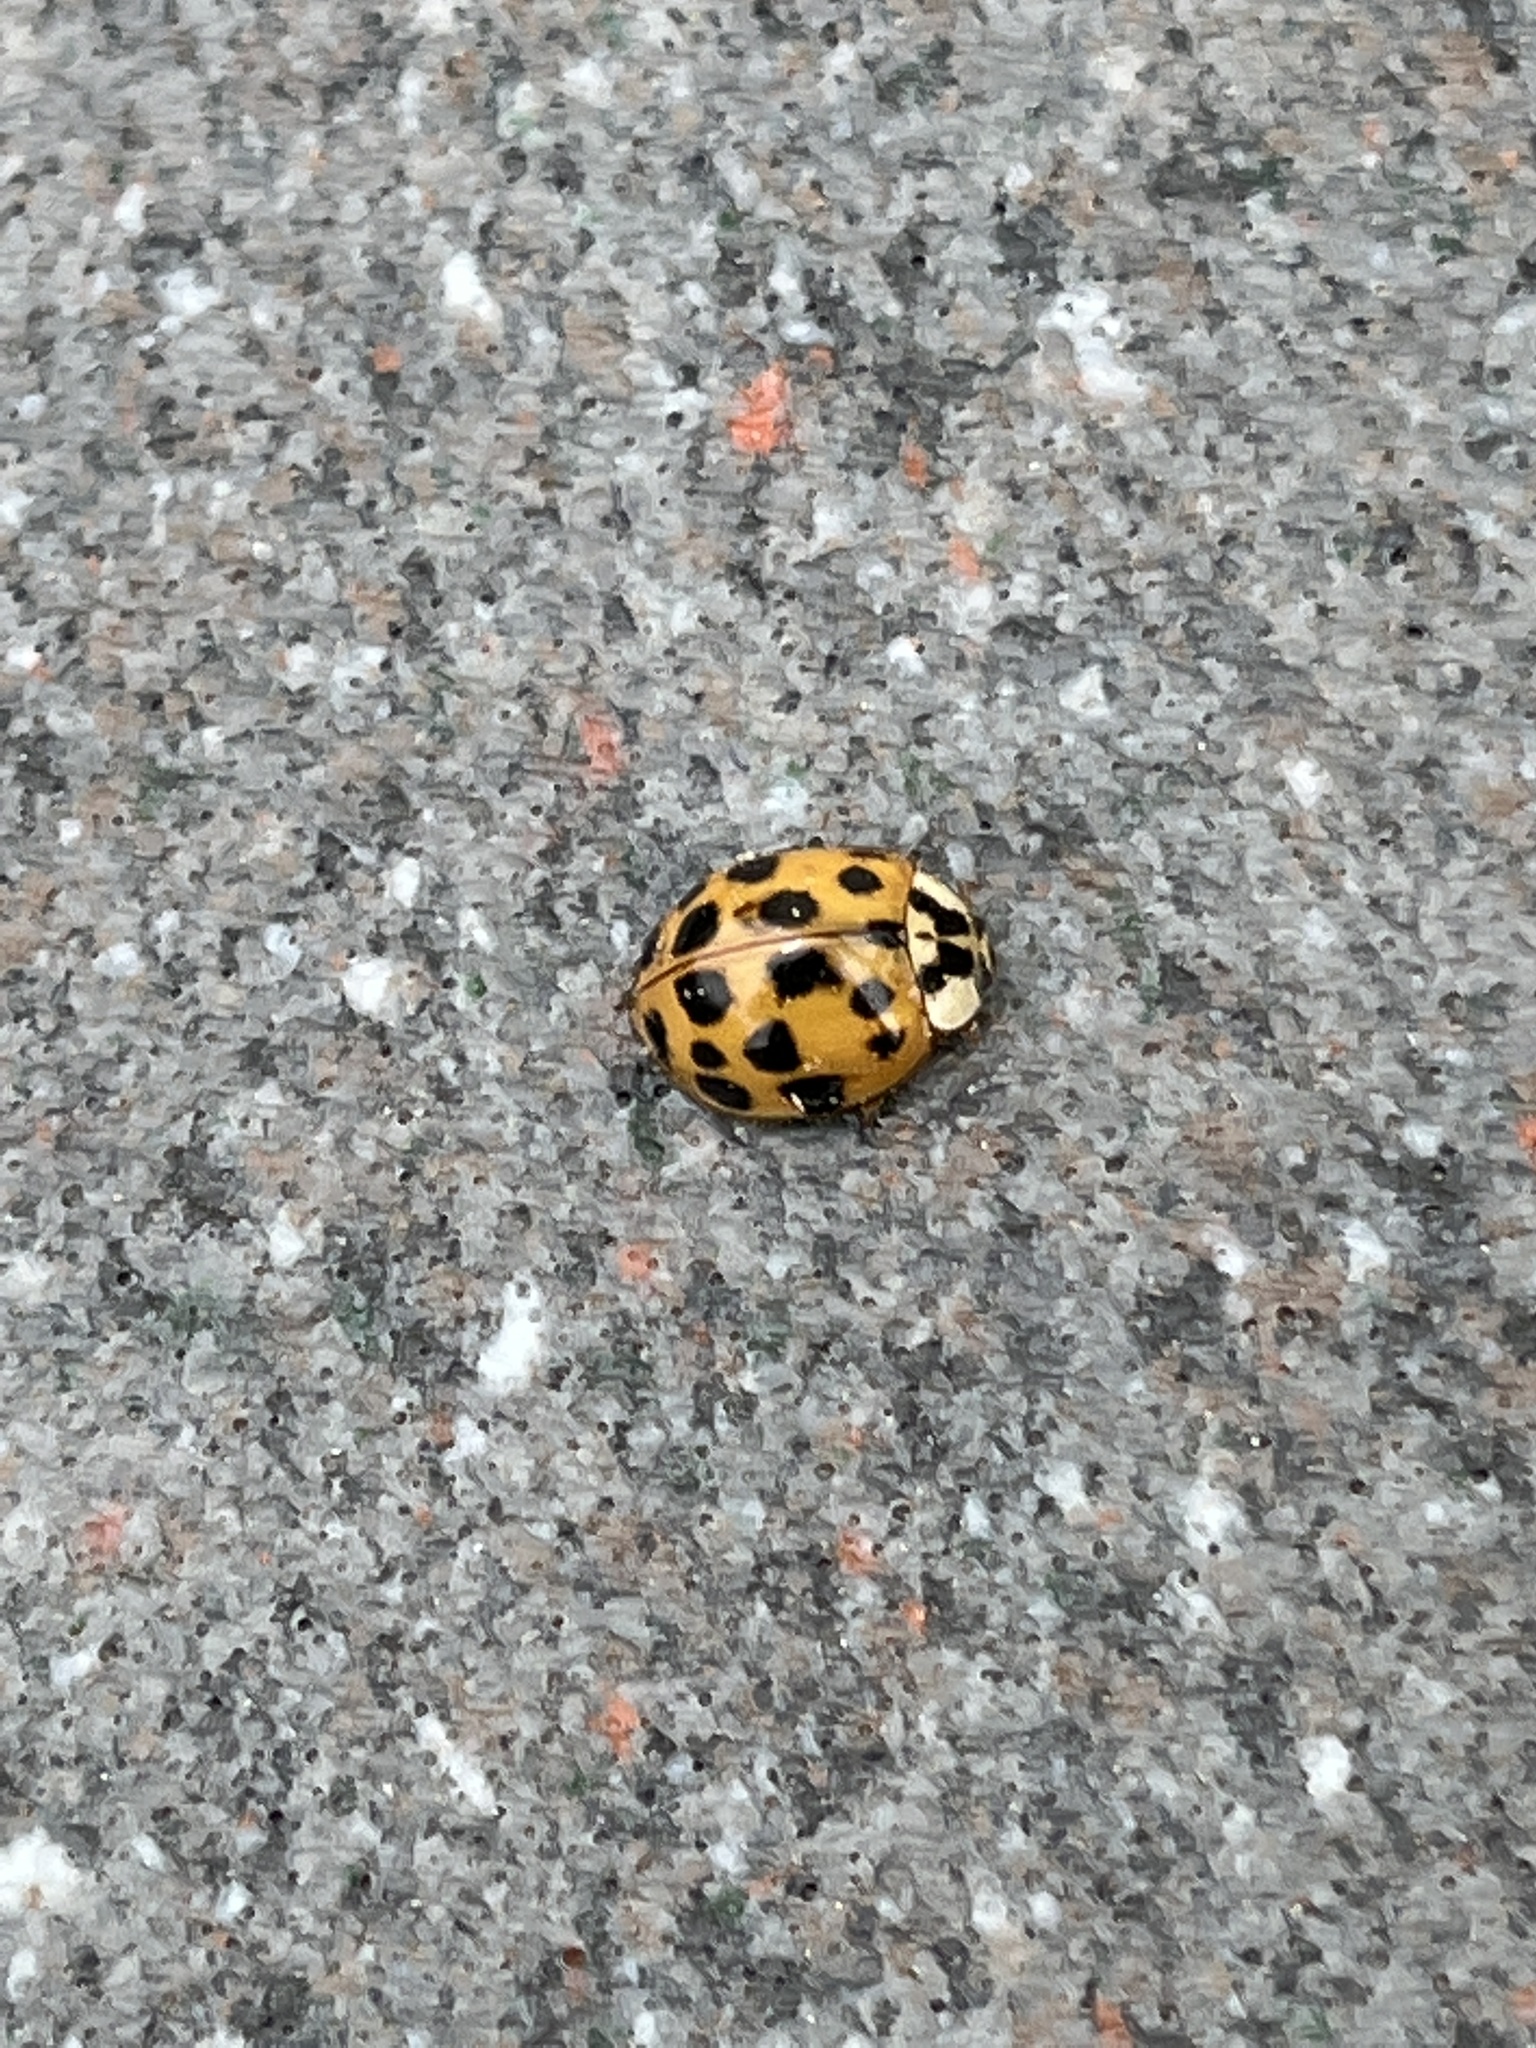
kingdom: Animalia
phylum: Arthropoda
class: Insecta
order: Coleoptera
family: Coccinellidae
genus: Harmonia
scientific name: Harmonia axyridis
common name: Harlequin ladybird
